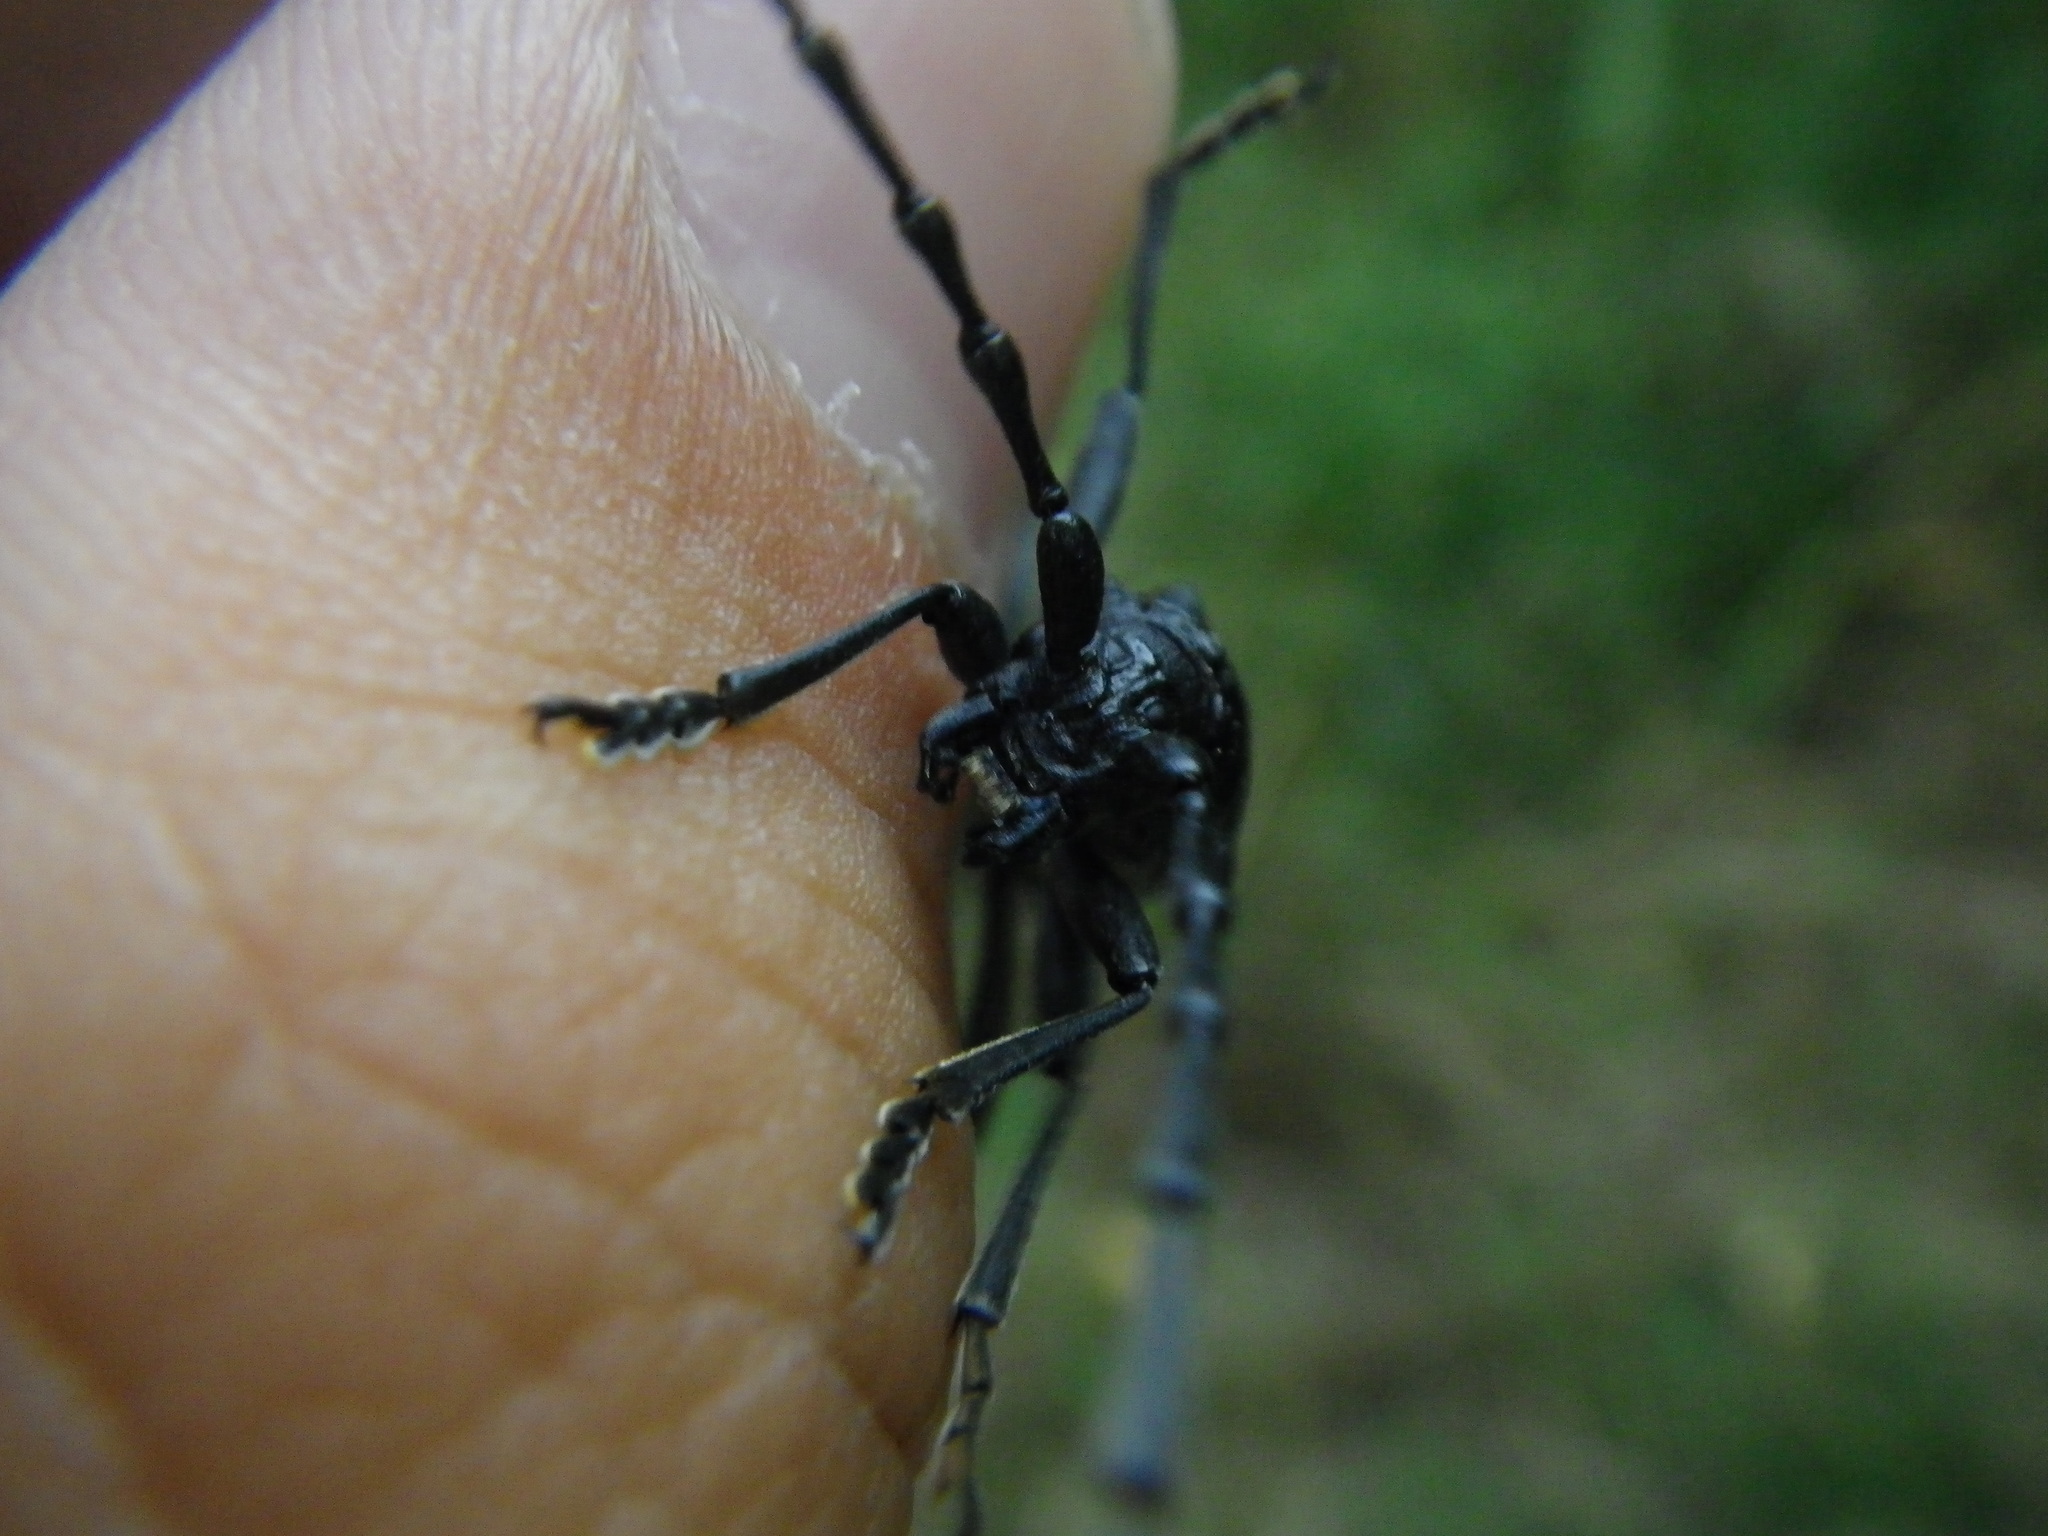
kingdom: Animalia
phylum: Arthropoda
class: Insecta
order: Coleoptera
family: Cerambycidae
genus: Cerambyx
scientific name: Cerambyx scopolii
